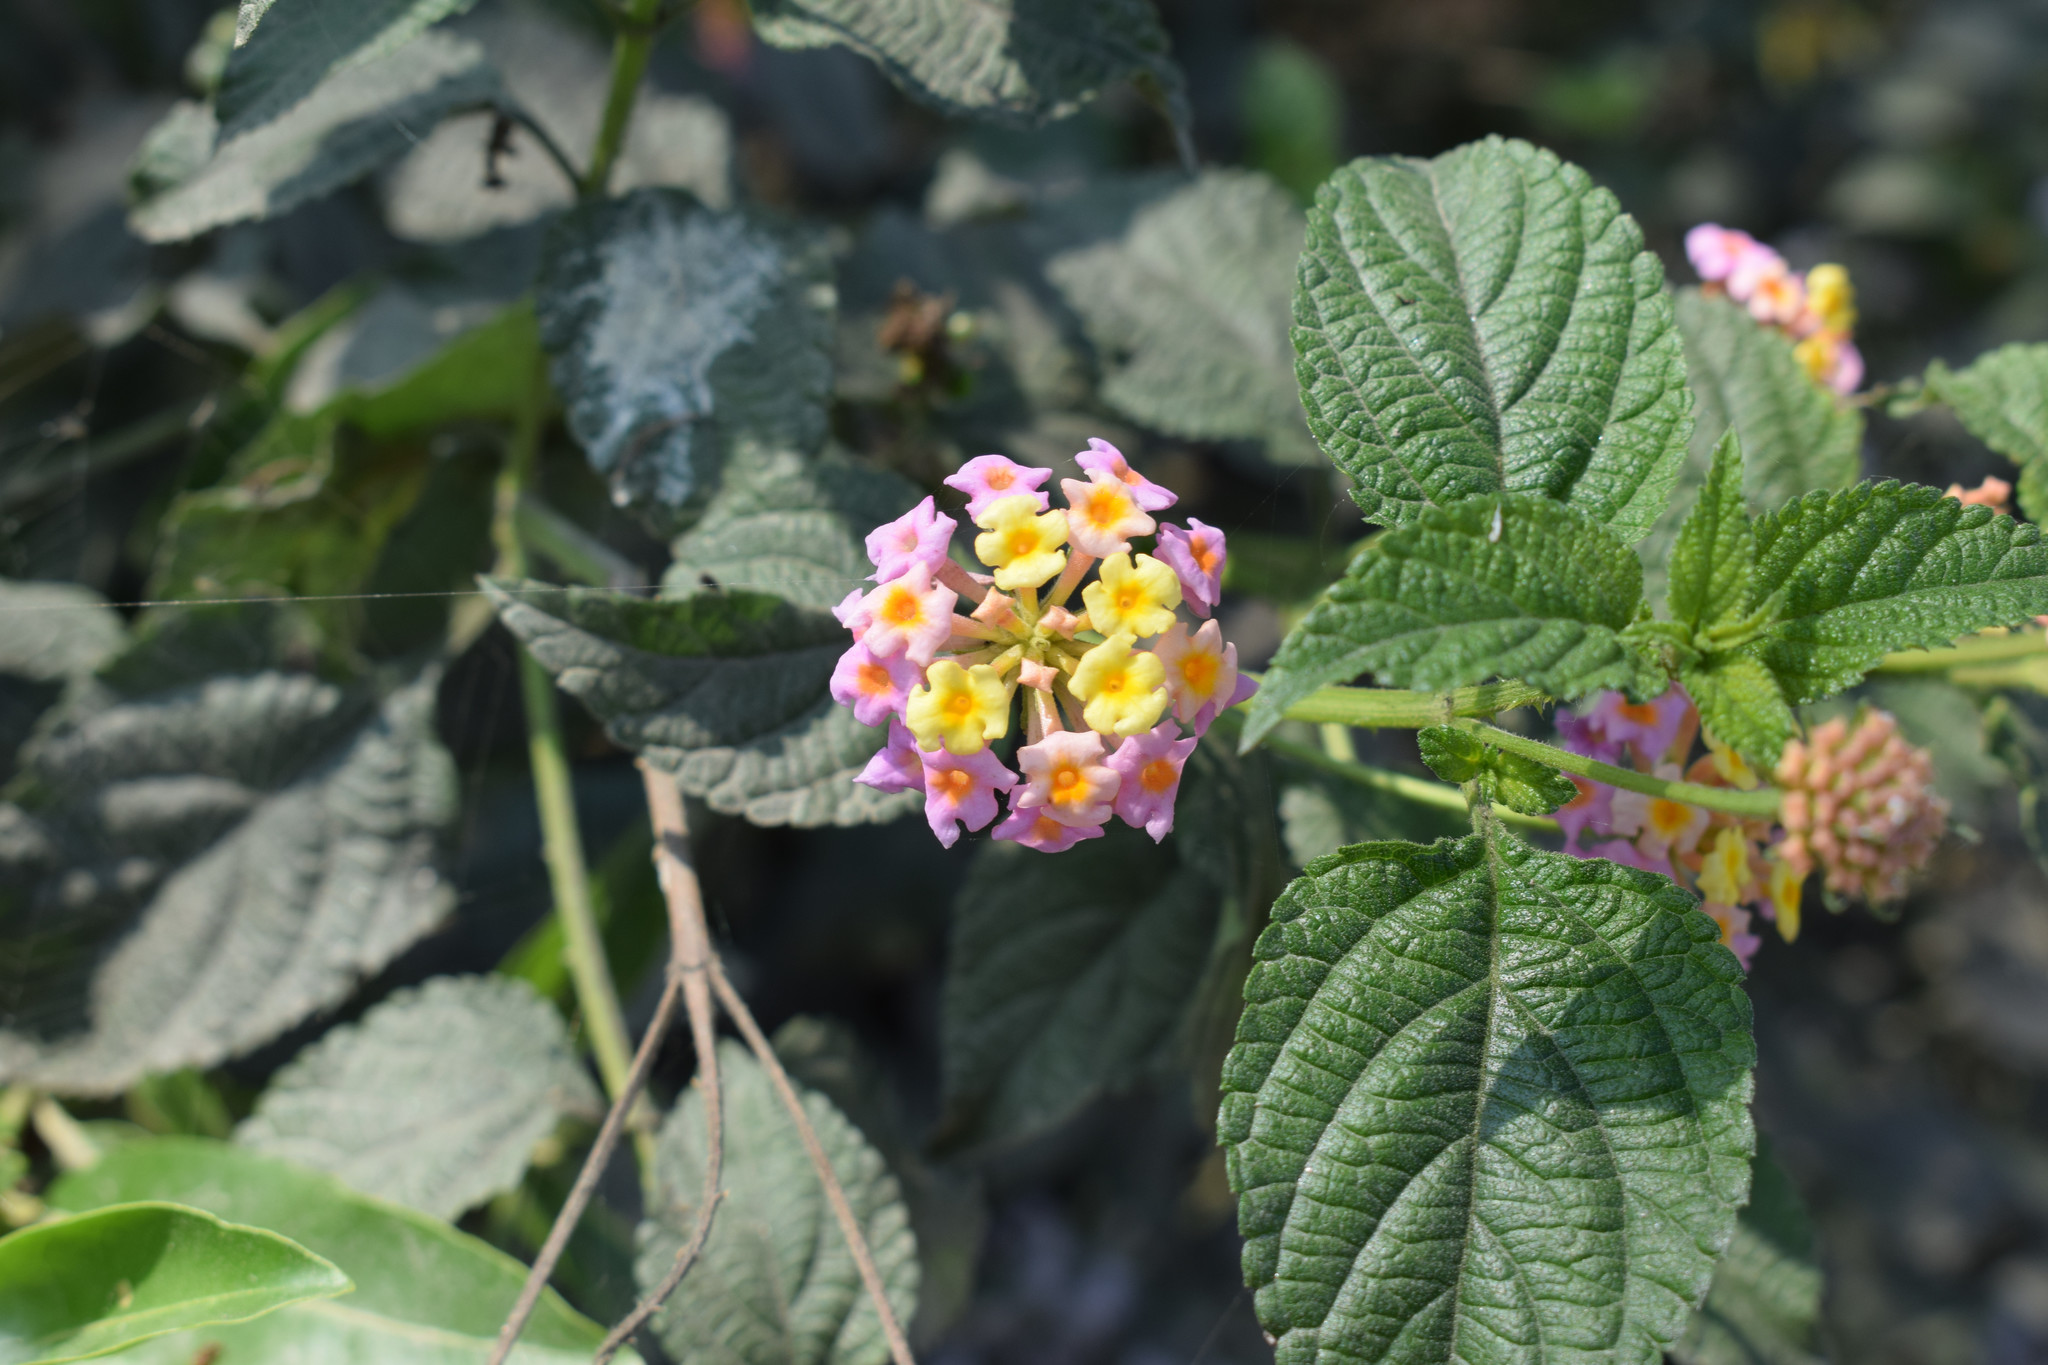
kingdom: Plantae
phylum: Tracheophyta
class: Magnoliopsida
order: Lamiales
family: Verbenaceae
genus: Lantana
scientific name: Lantana camara
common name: Lantana
